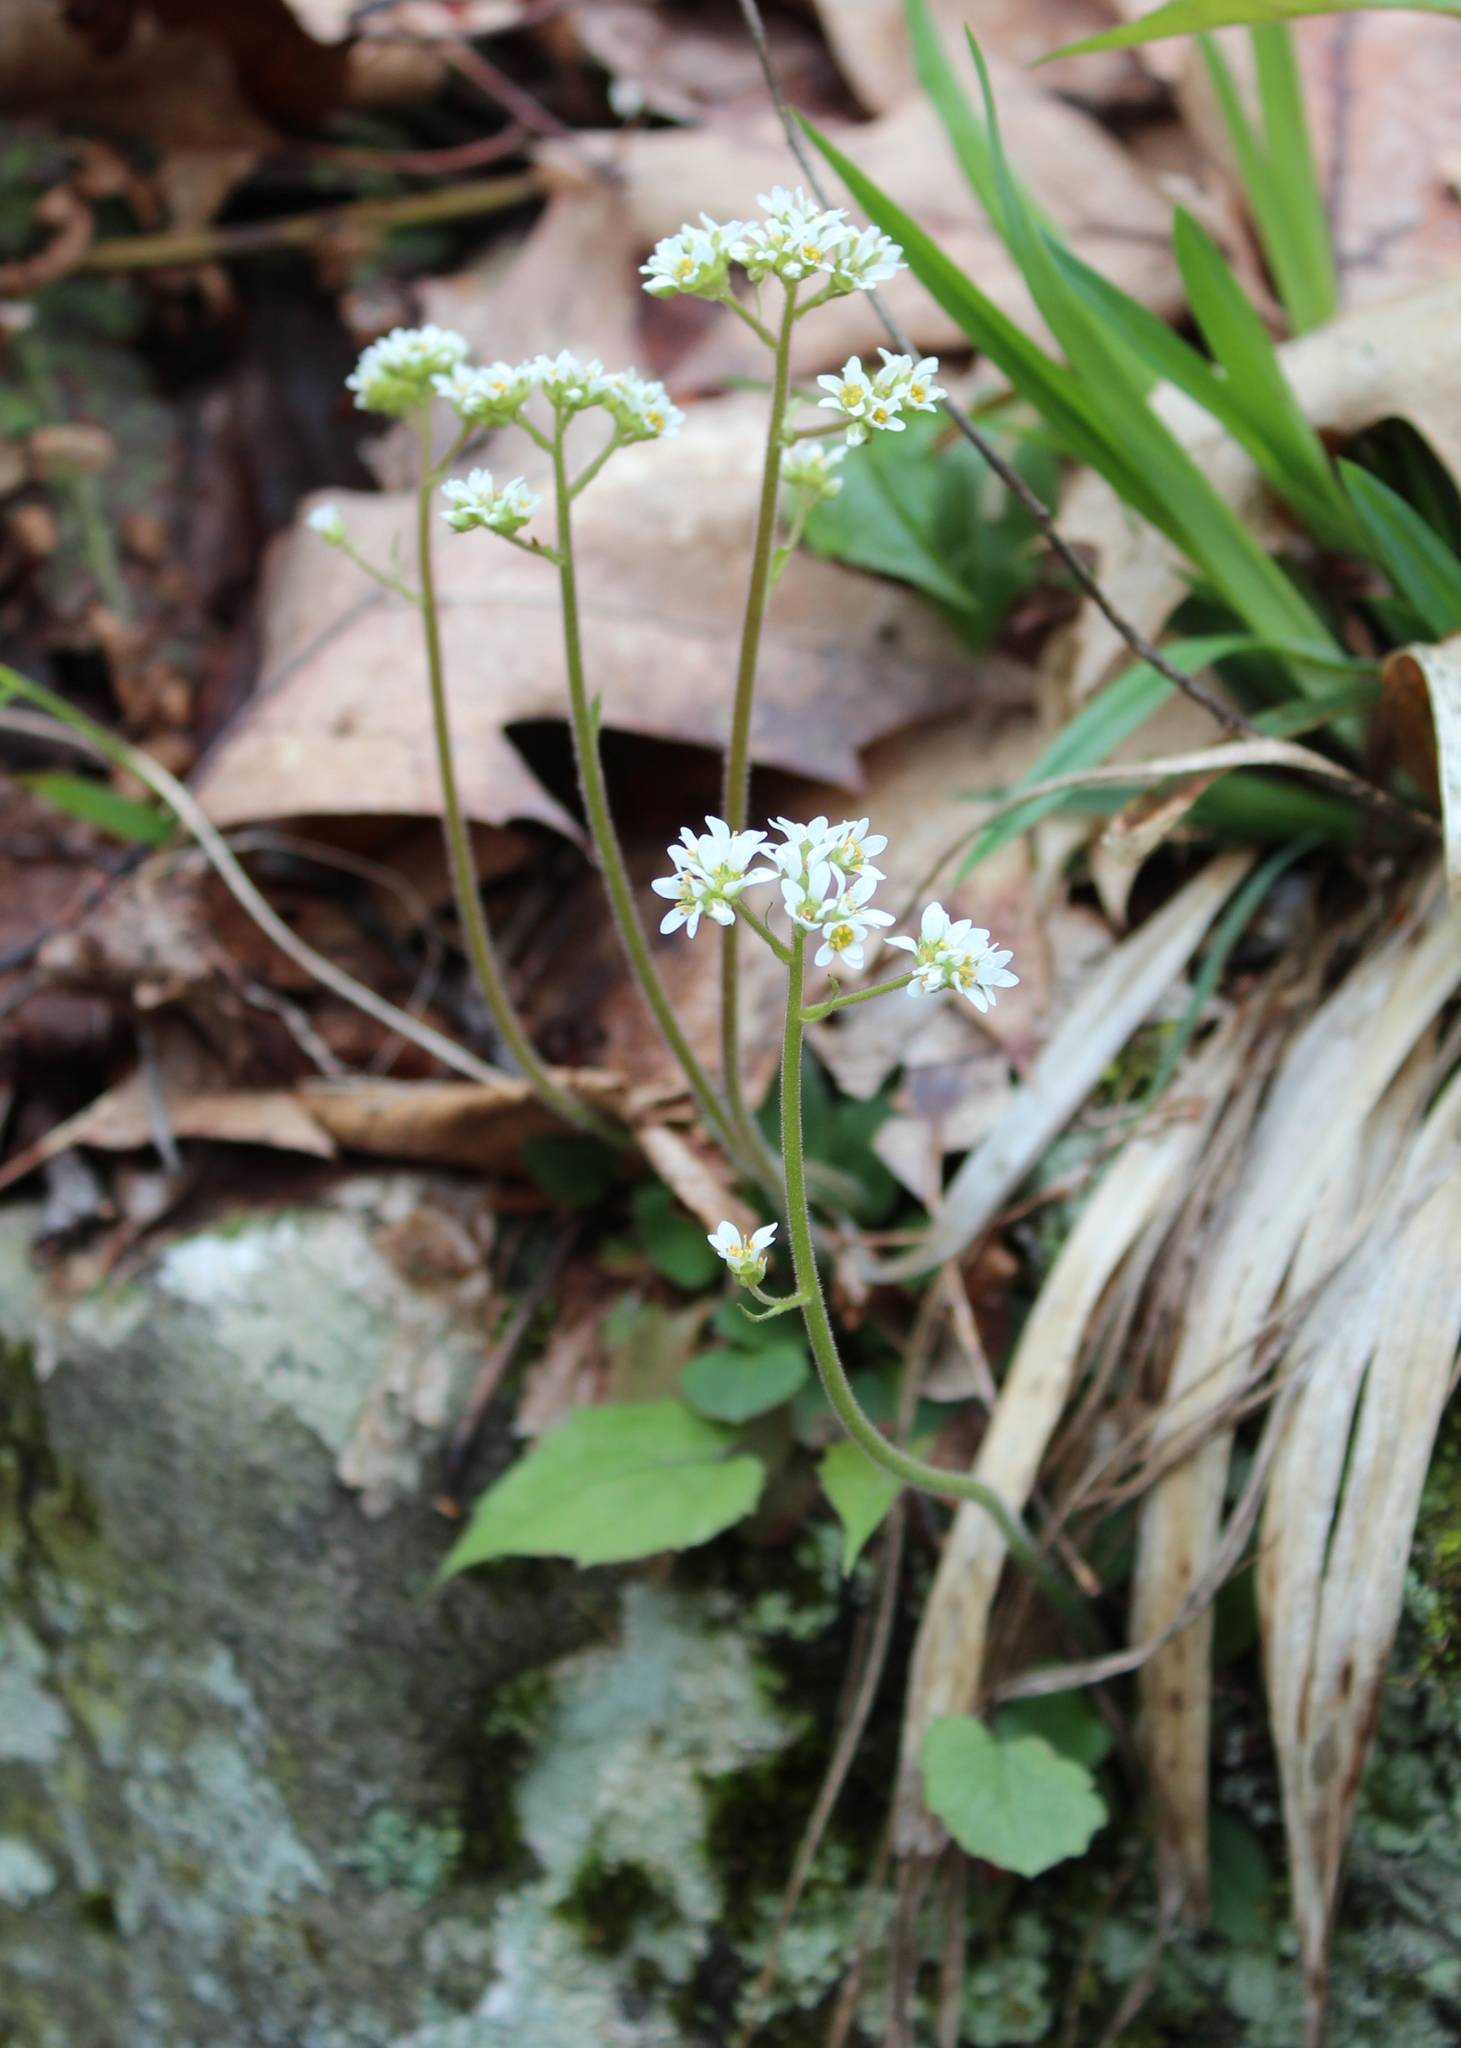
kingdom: Plantae
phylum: Tracheophyta
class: Magnoliopsida
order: Saxifragales
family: Saxifragaceae
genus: Micranthes
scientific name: Micranthes virginiensis
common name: Early saxifrage
